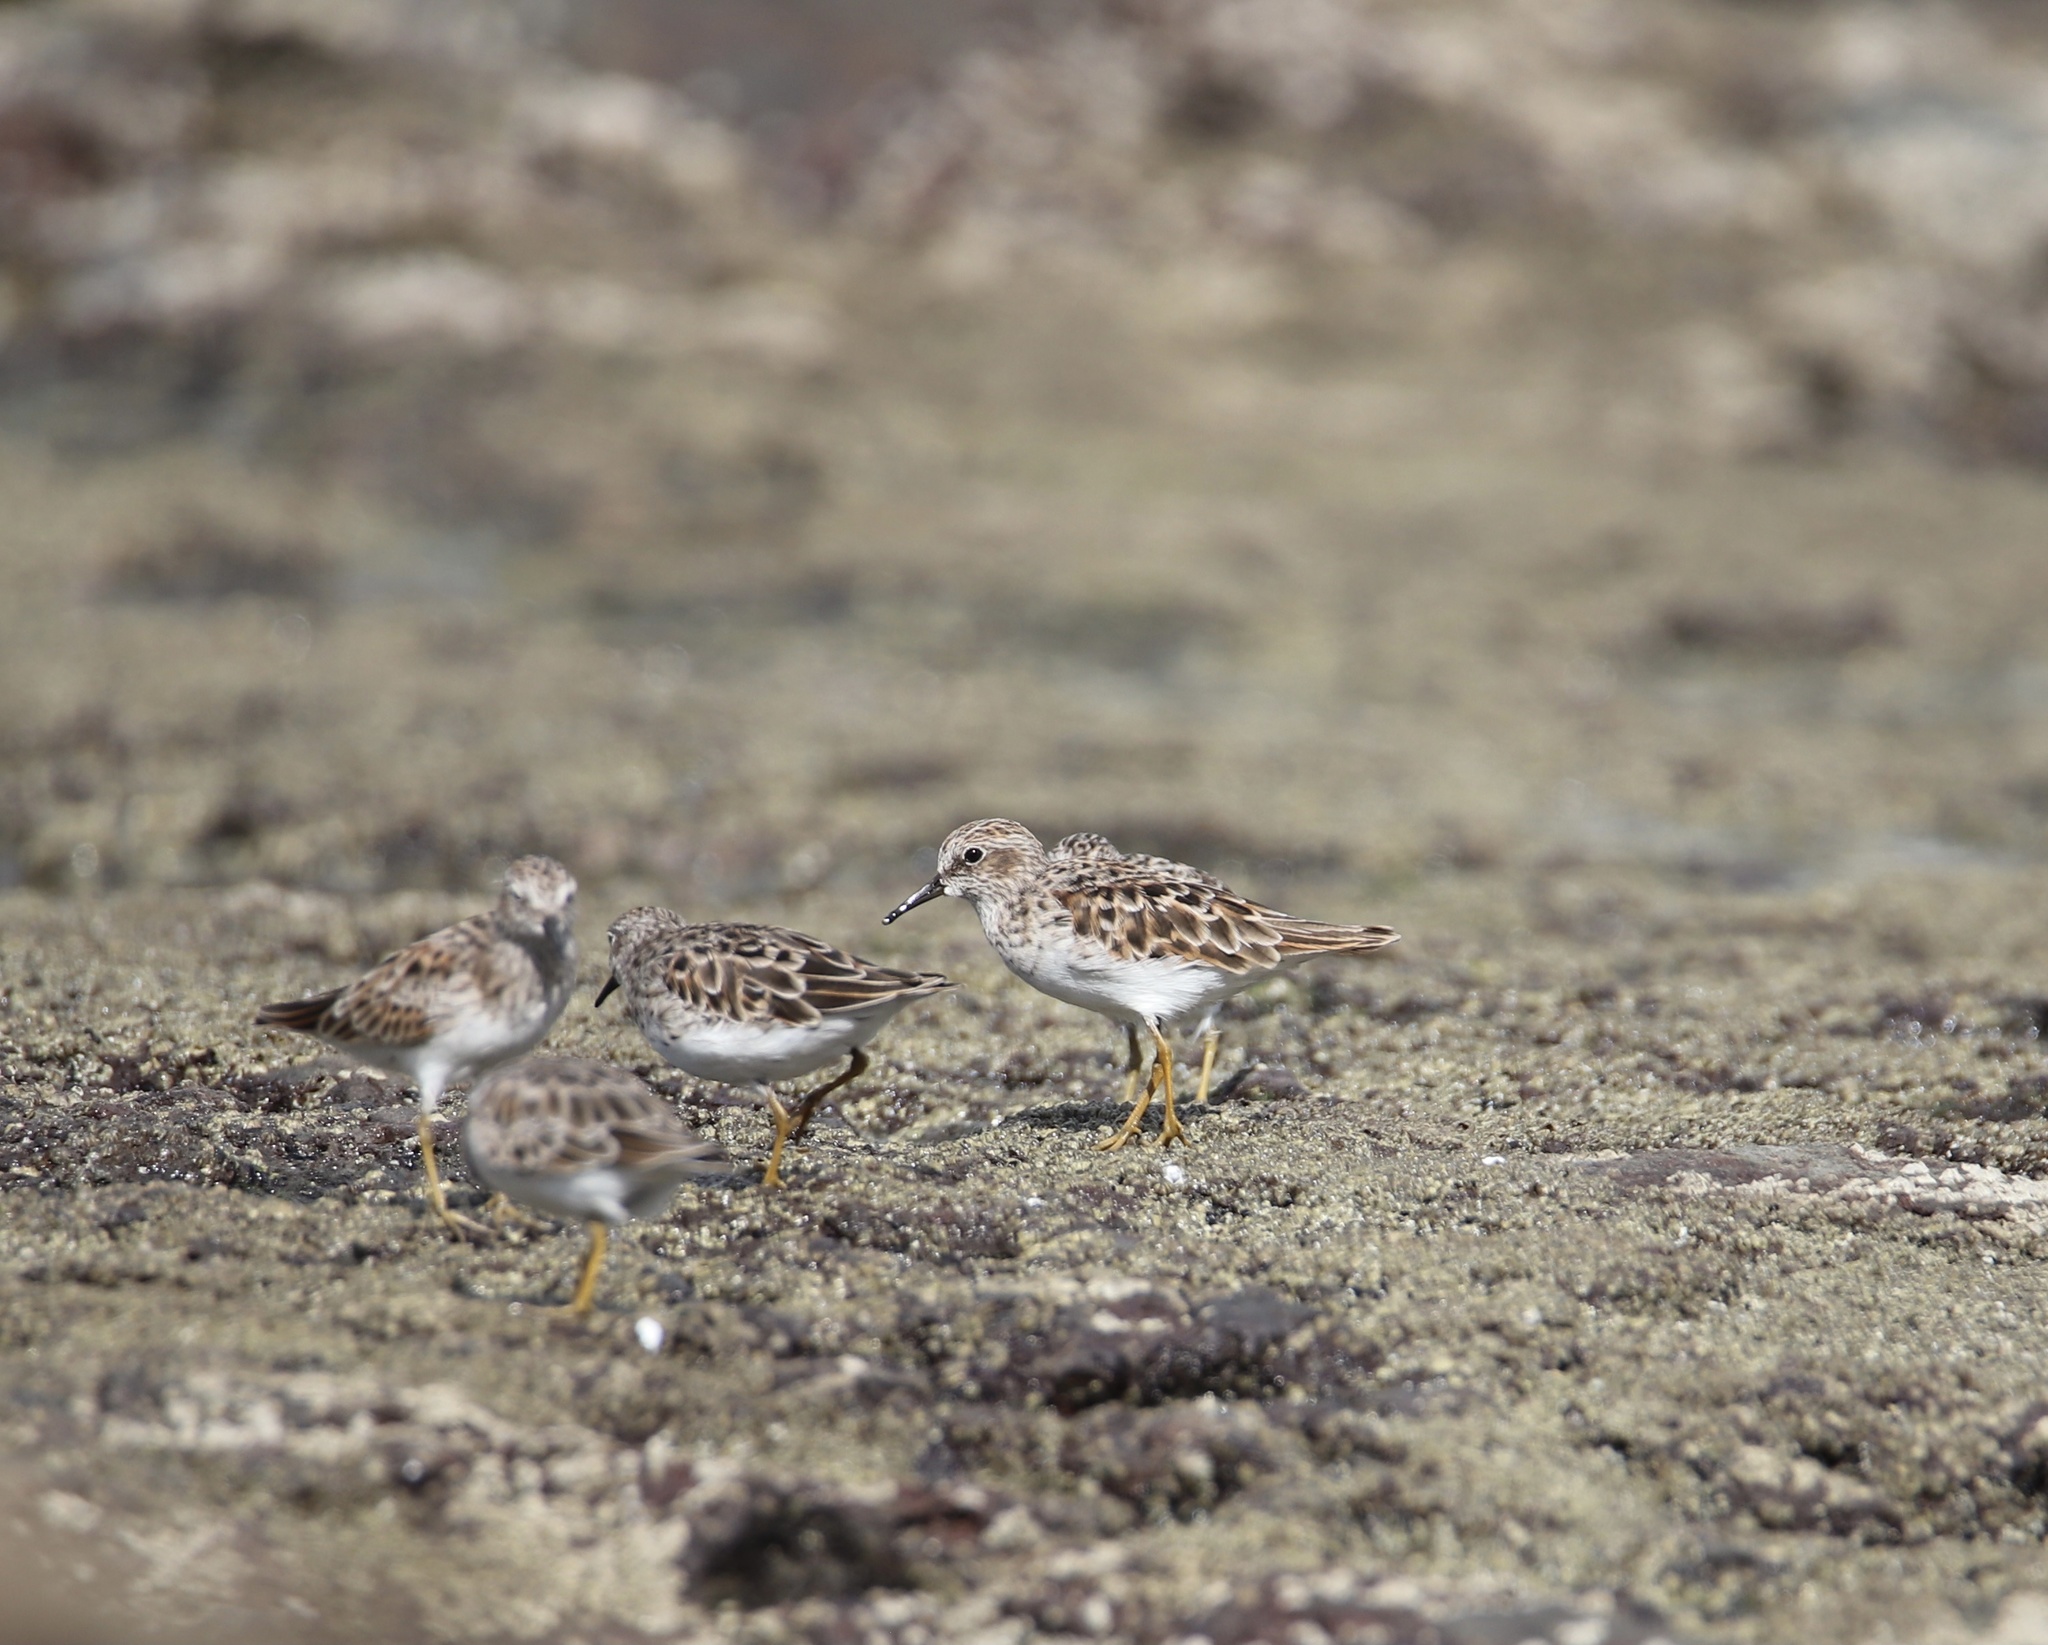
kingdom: Animalia
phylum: Chordata
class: Aves
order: Charadriiformes
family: Scolopacidae
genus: Calidris
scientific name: Calidris minutilla
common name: Least sandpiper
